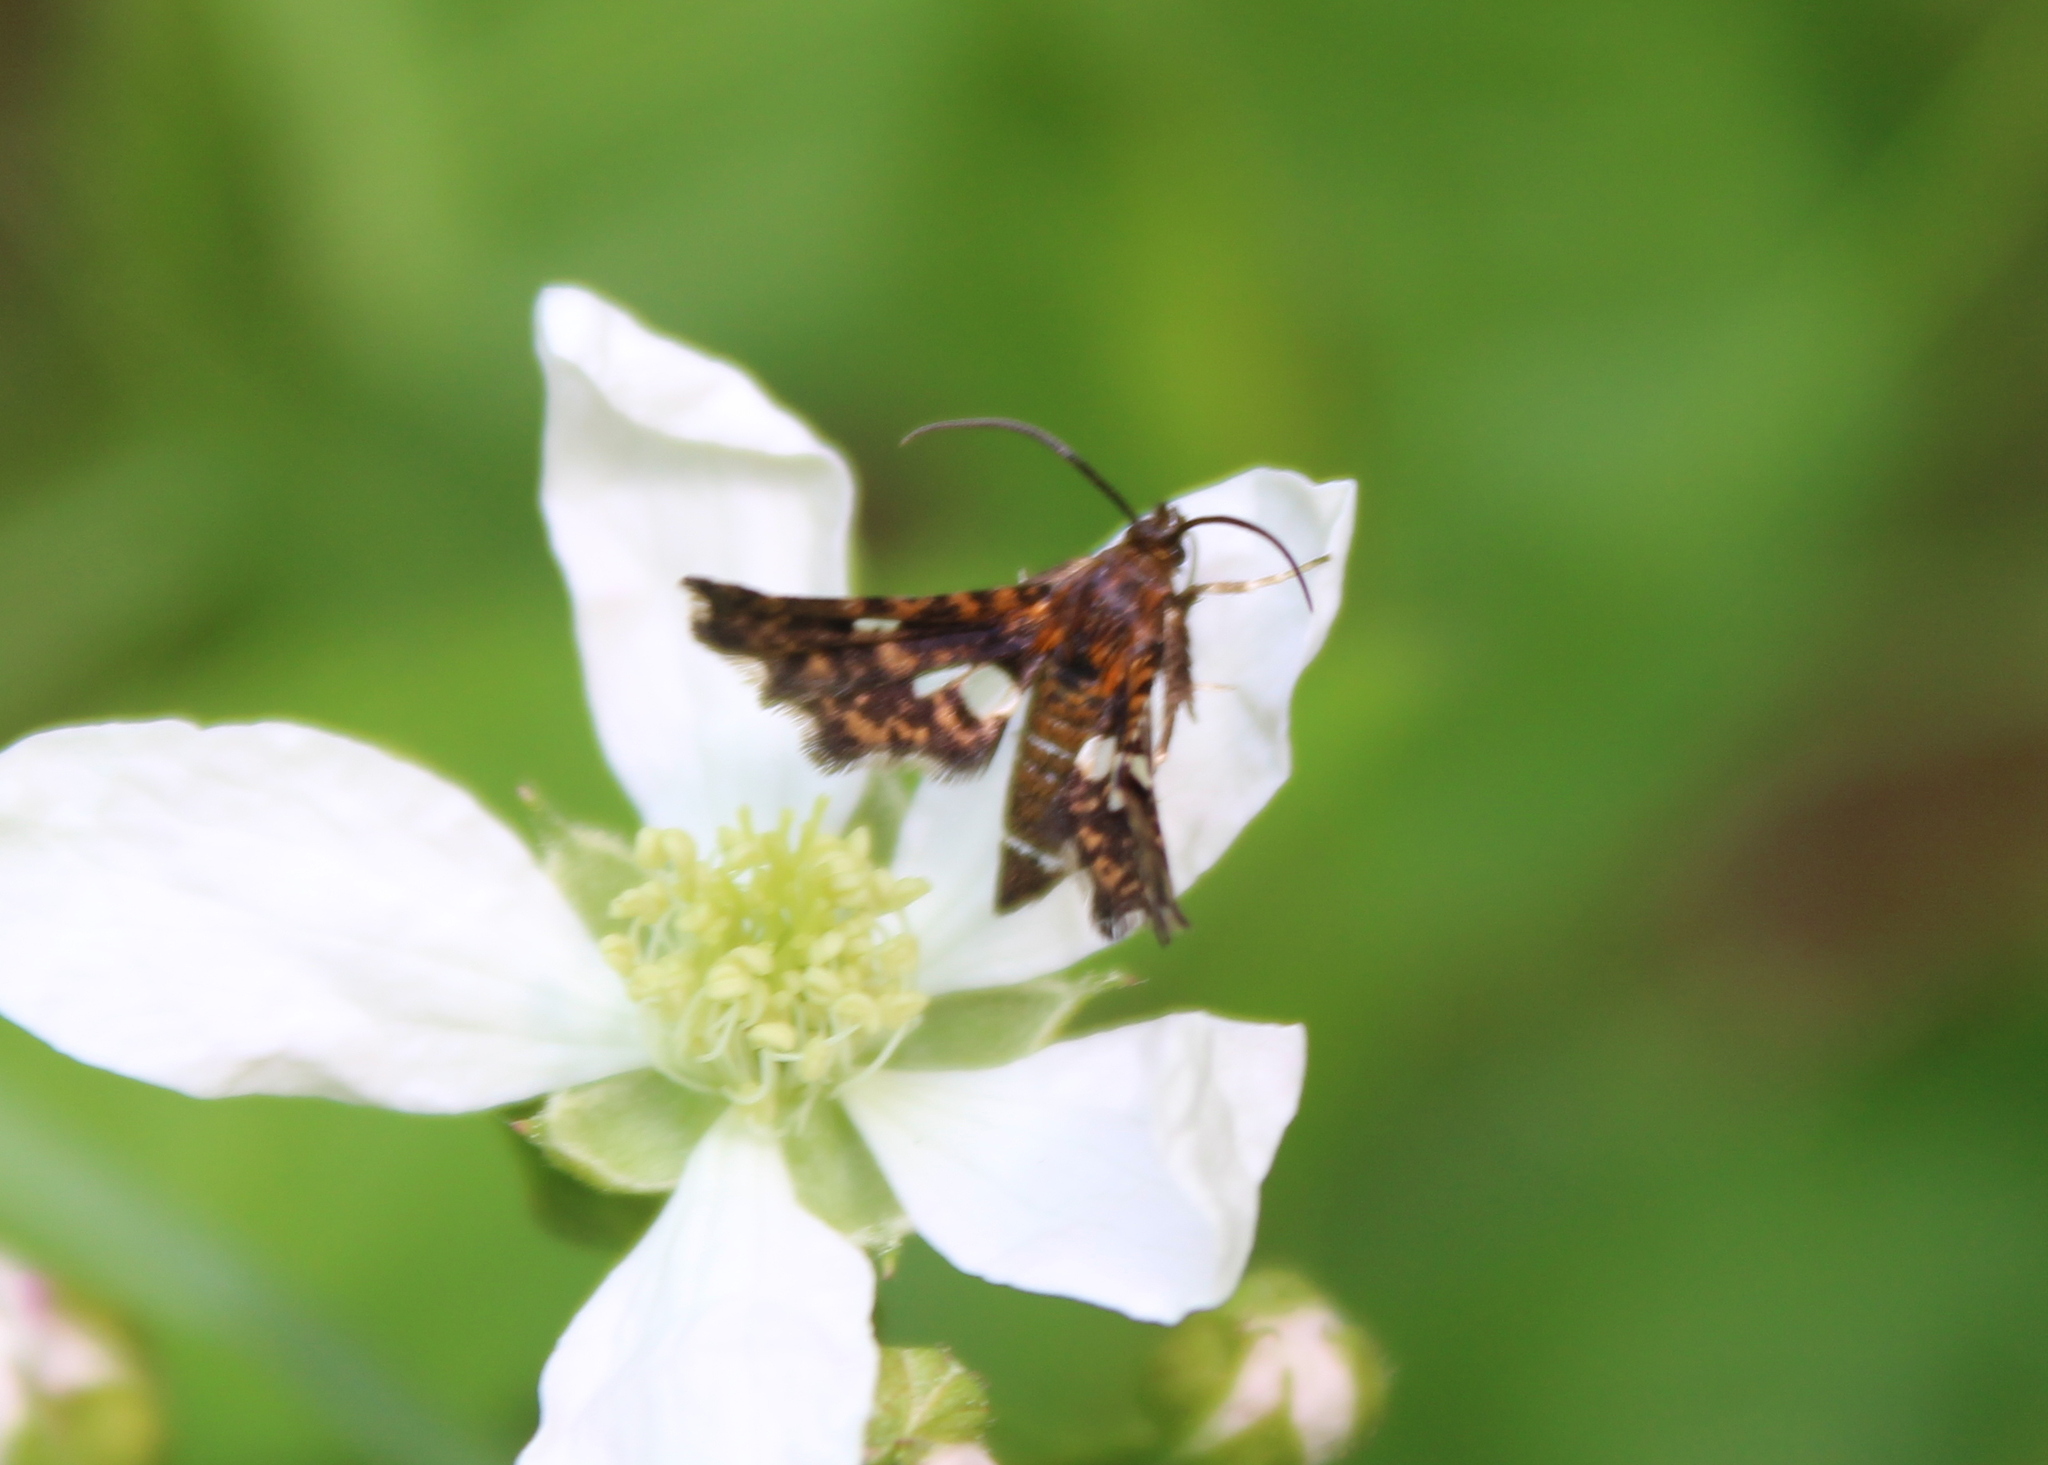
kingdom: Animalia
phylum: Arthropoda
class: Insecta
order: Lepidoptera
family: Thyrididae
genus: Thyris
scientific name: Thyris maculata
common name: Spotted thyris moth
